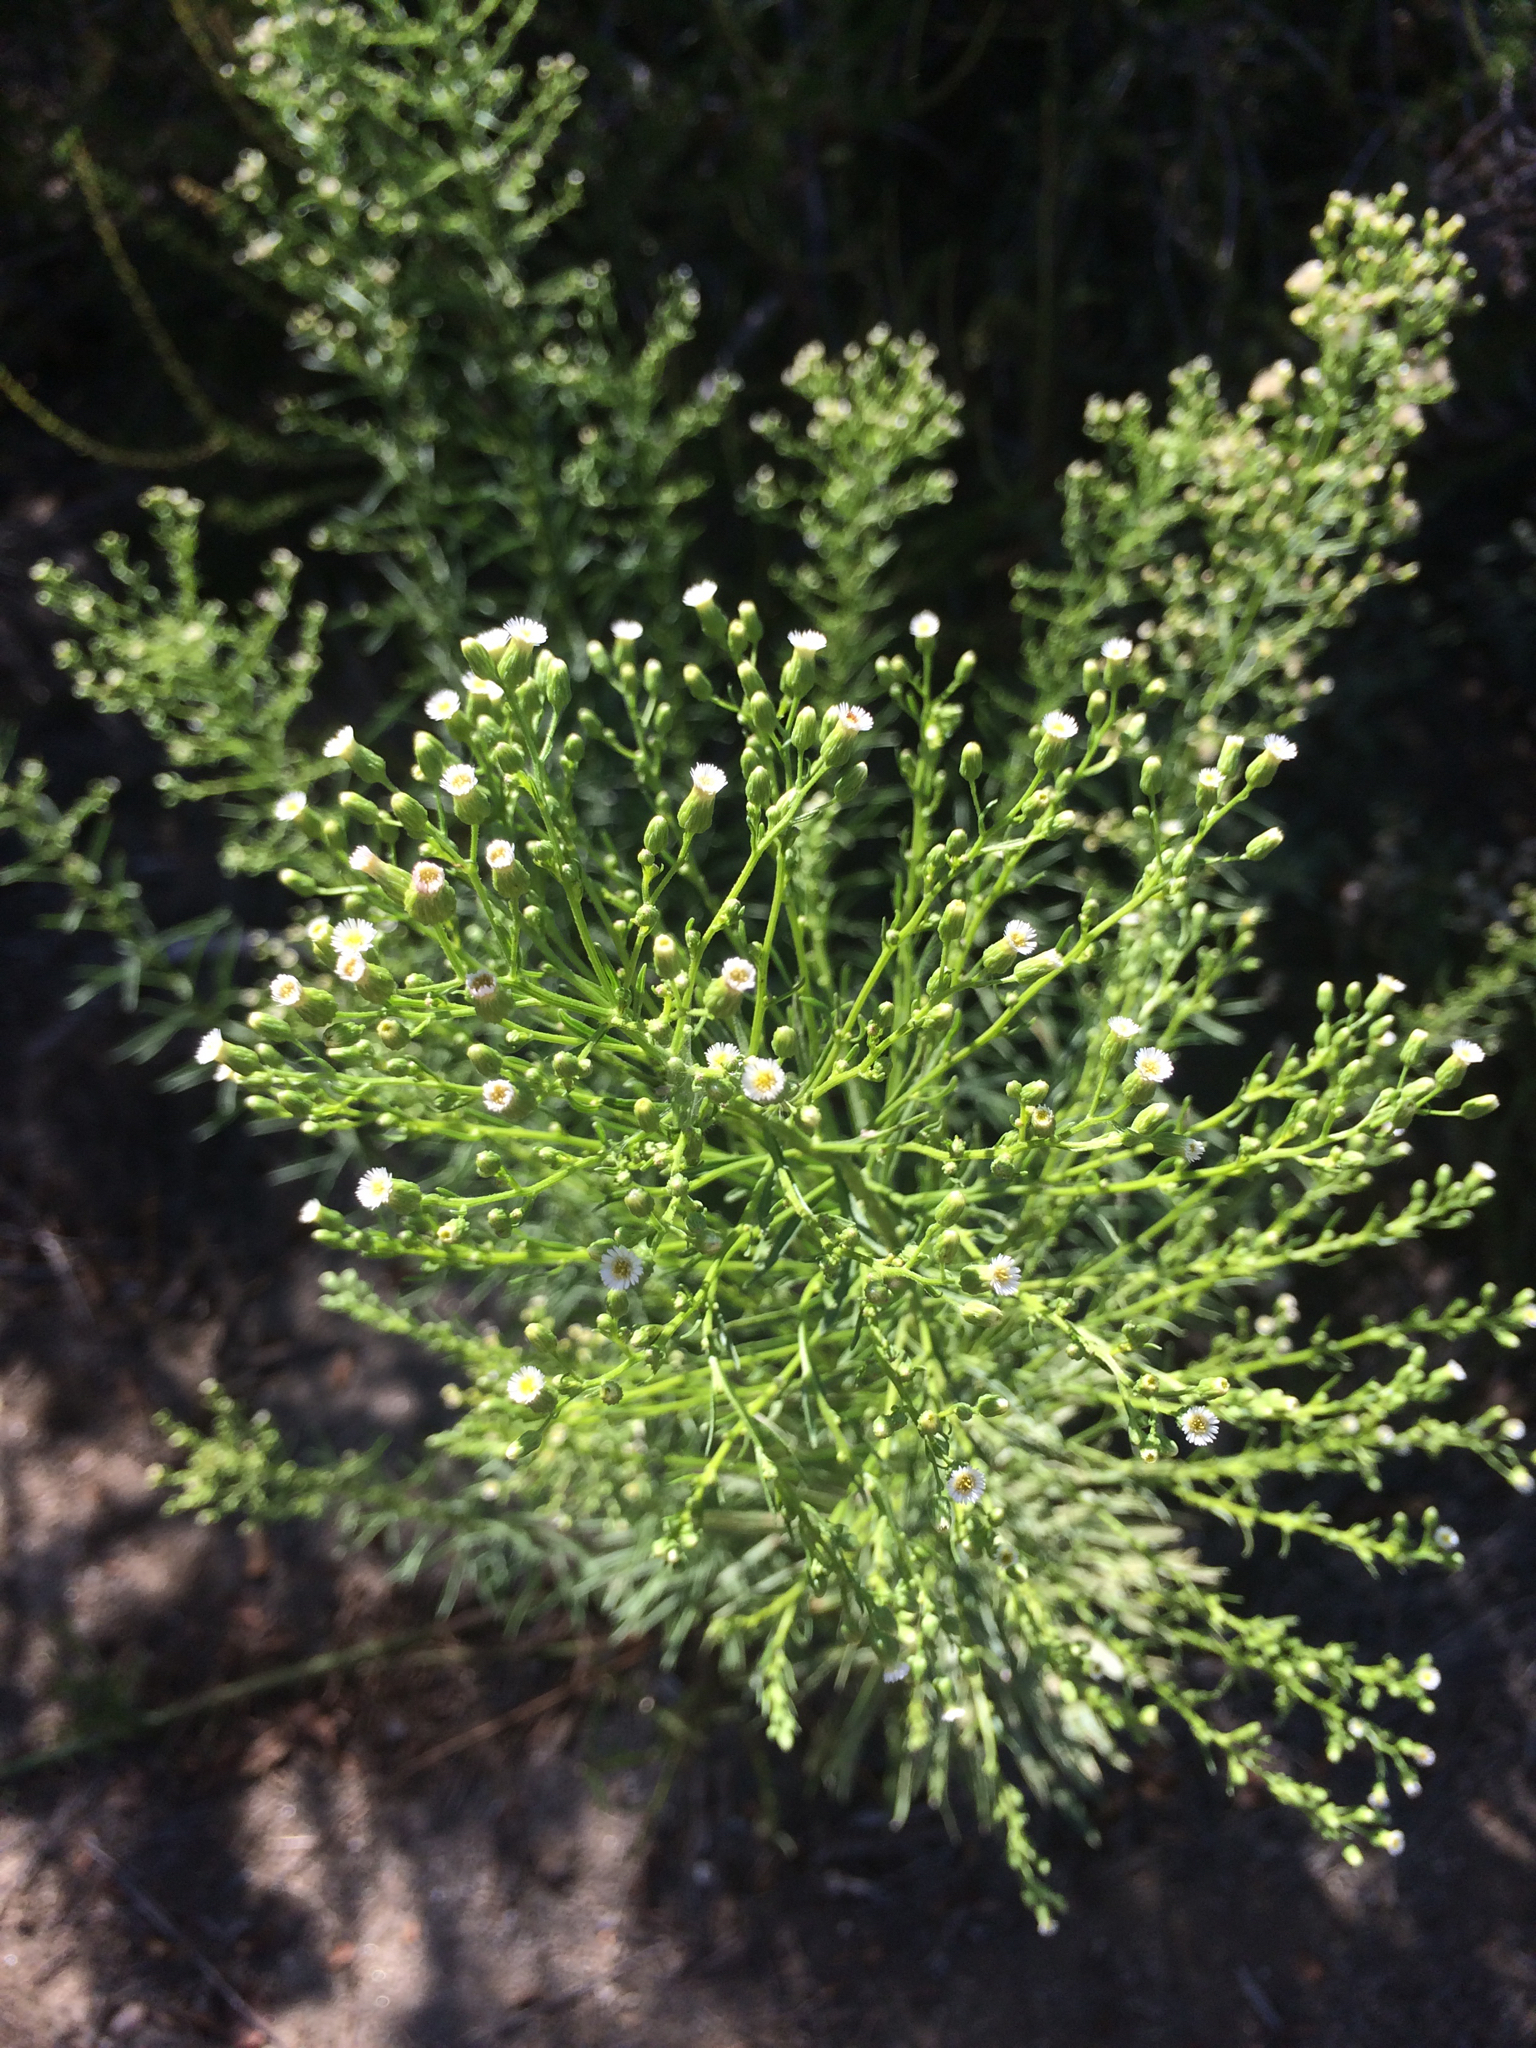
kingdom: Plantae
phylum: Tracheophyta
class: Magnoliopsida
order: Asterales
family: Asteraceae
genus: Erigeron
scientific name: Erigeron canadensis
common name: Canadian fleabane
